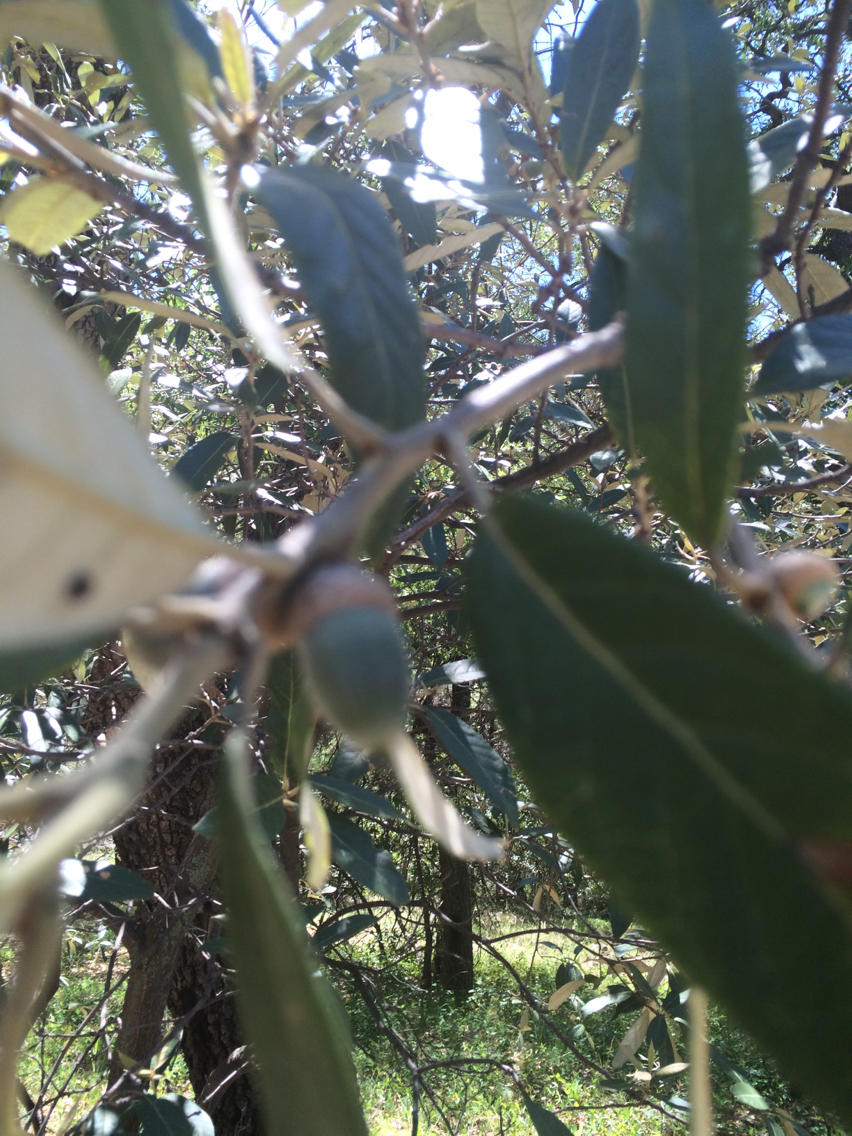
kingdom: Plantae
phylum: Tracheophyta
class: Magnoliopsida
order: Fagales
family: Fagaceae
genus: Quercus
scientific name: Quercus hypoleucoides
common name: Silverleaf oak
